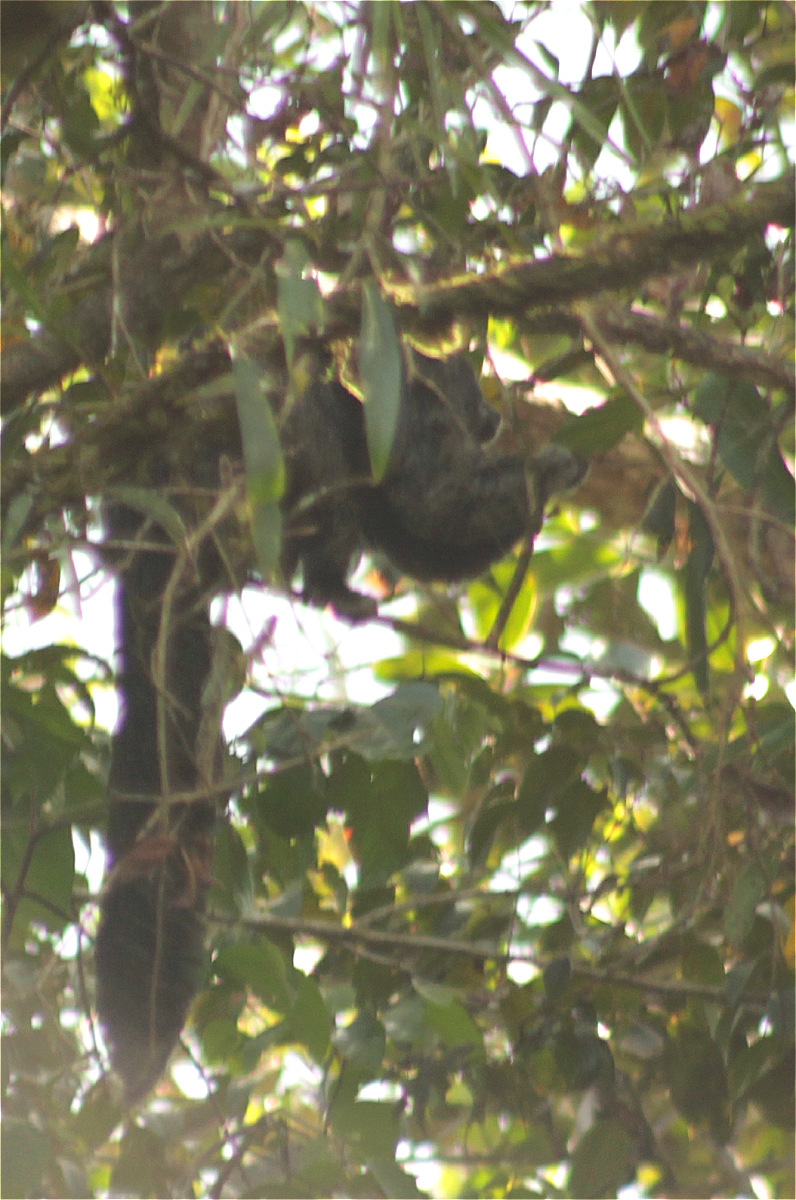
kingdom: Animalia
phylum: Chordata
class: Mammalia
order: Primates
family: Pitheciidae
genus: Pithecia
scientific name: Pithecia milleri
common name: Miller's saki
